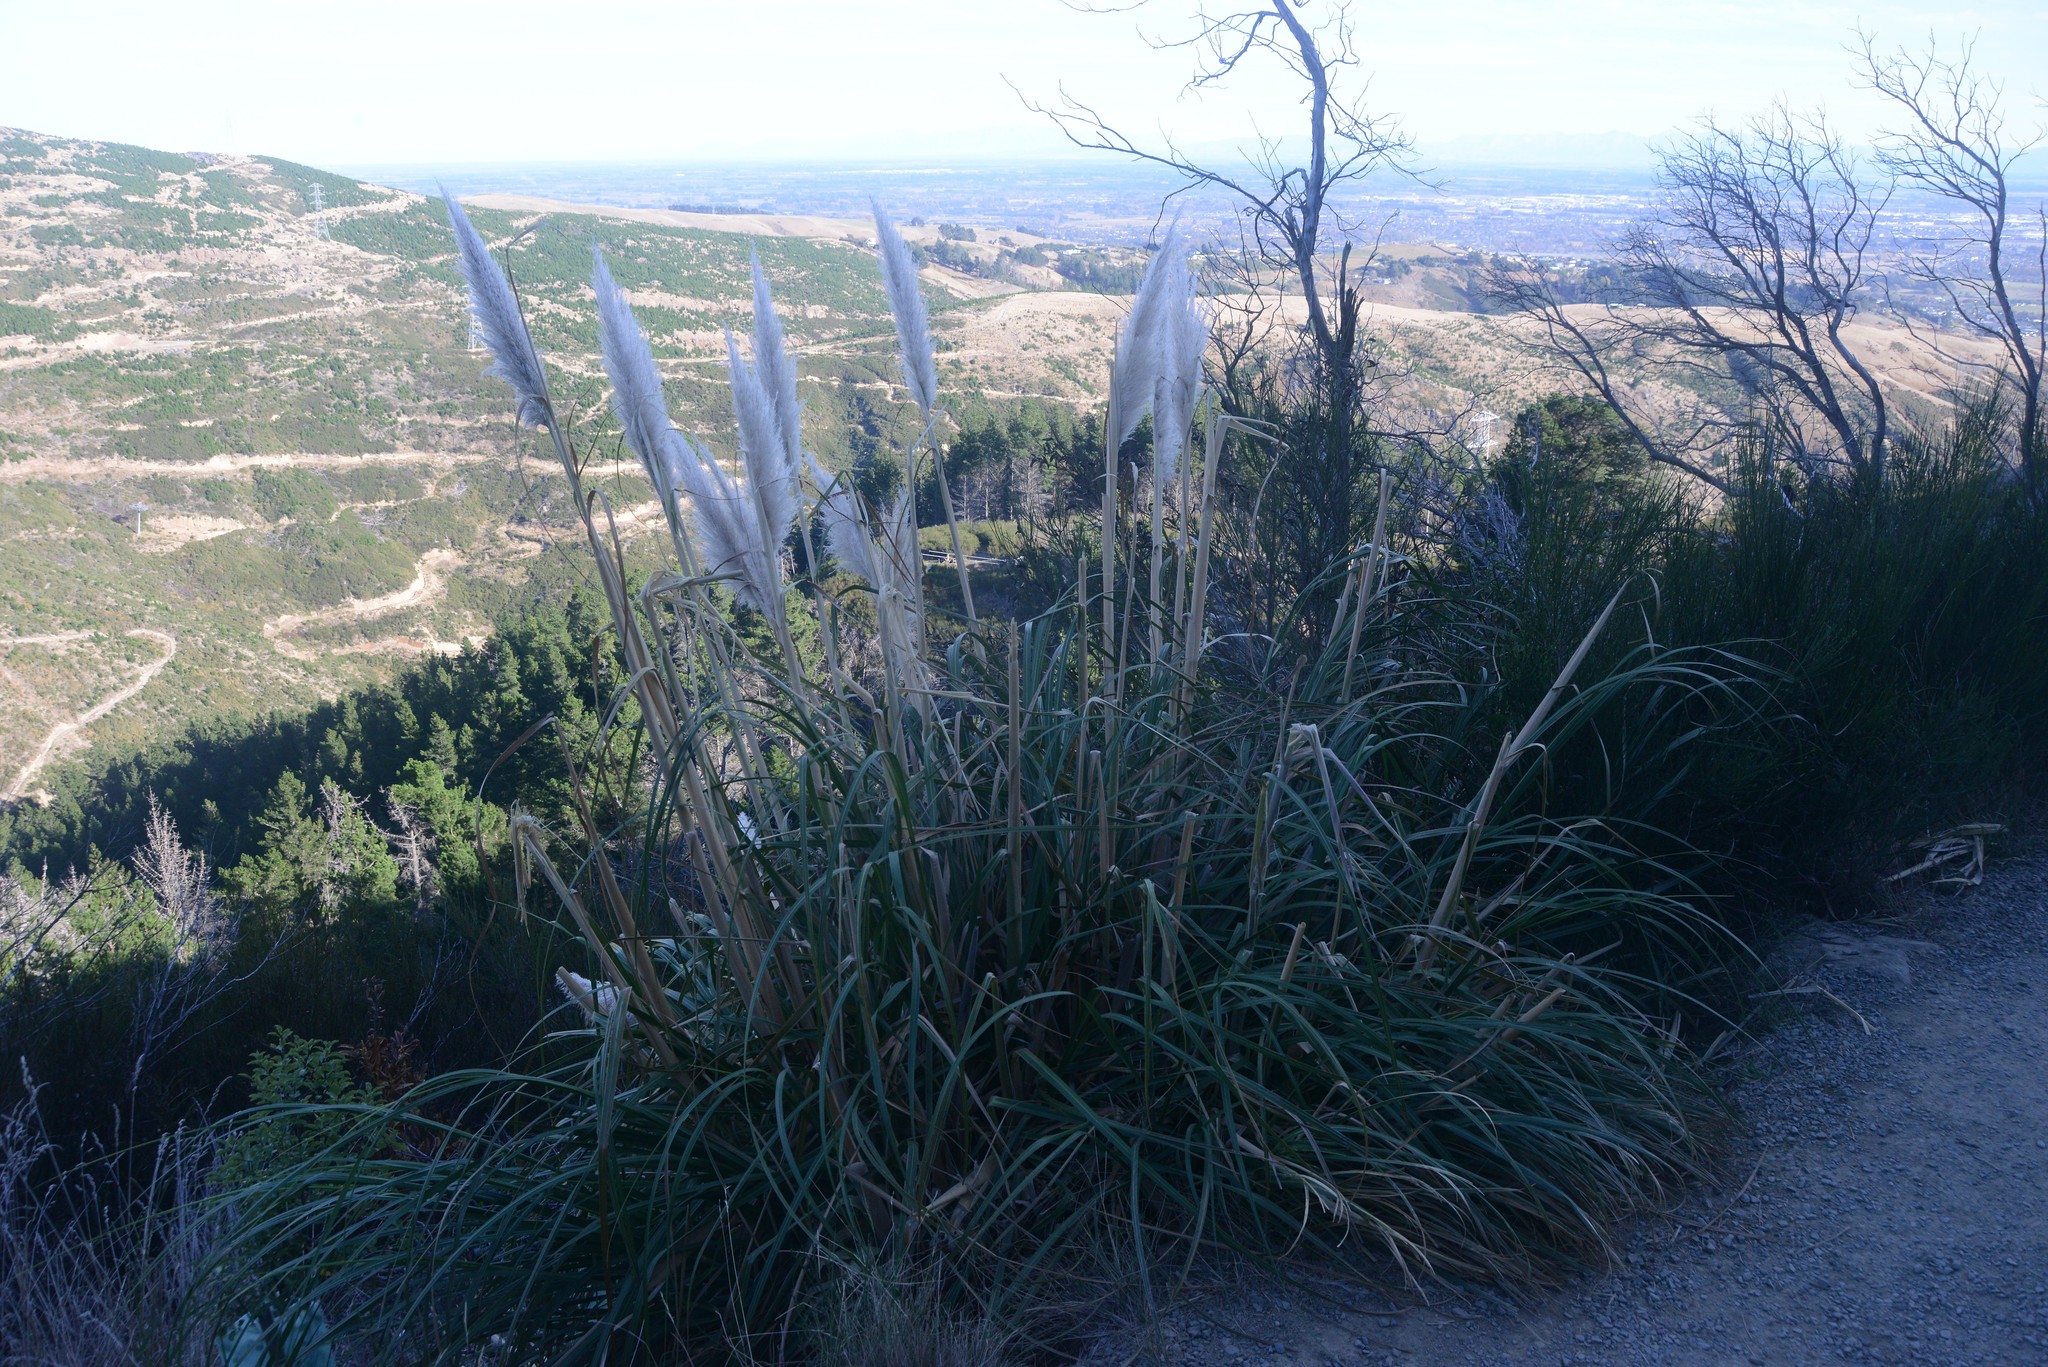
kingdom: Plantae
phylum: Tracheophyta
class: Liliopsida
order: Poales
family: Poaceae
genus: Cortaderia
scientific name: Cortaderia selloana
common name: Uruguayan pampas grass
